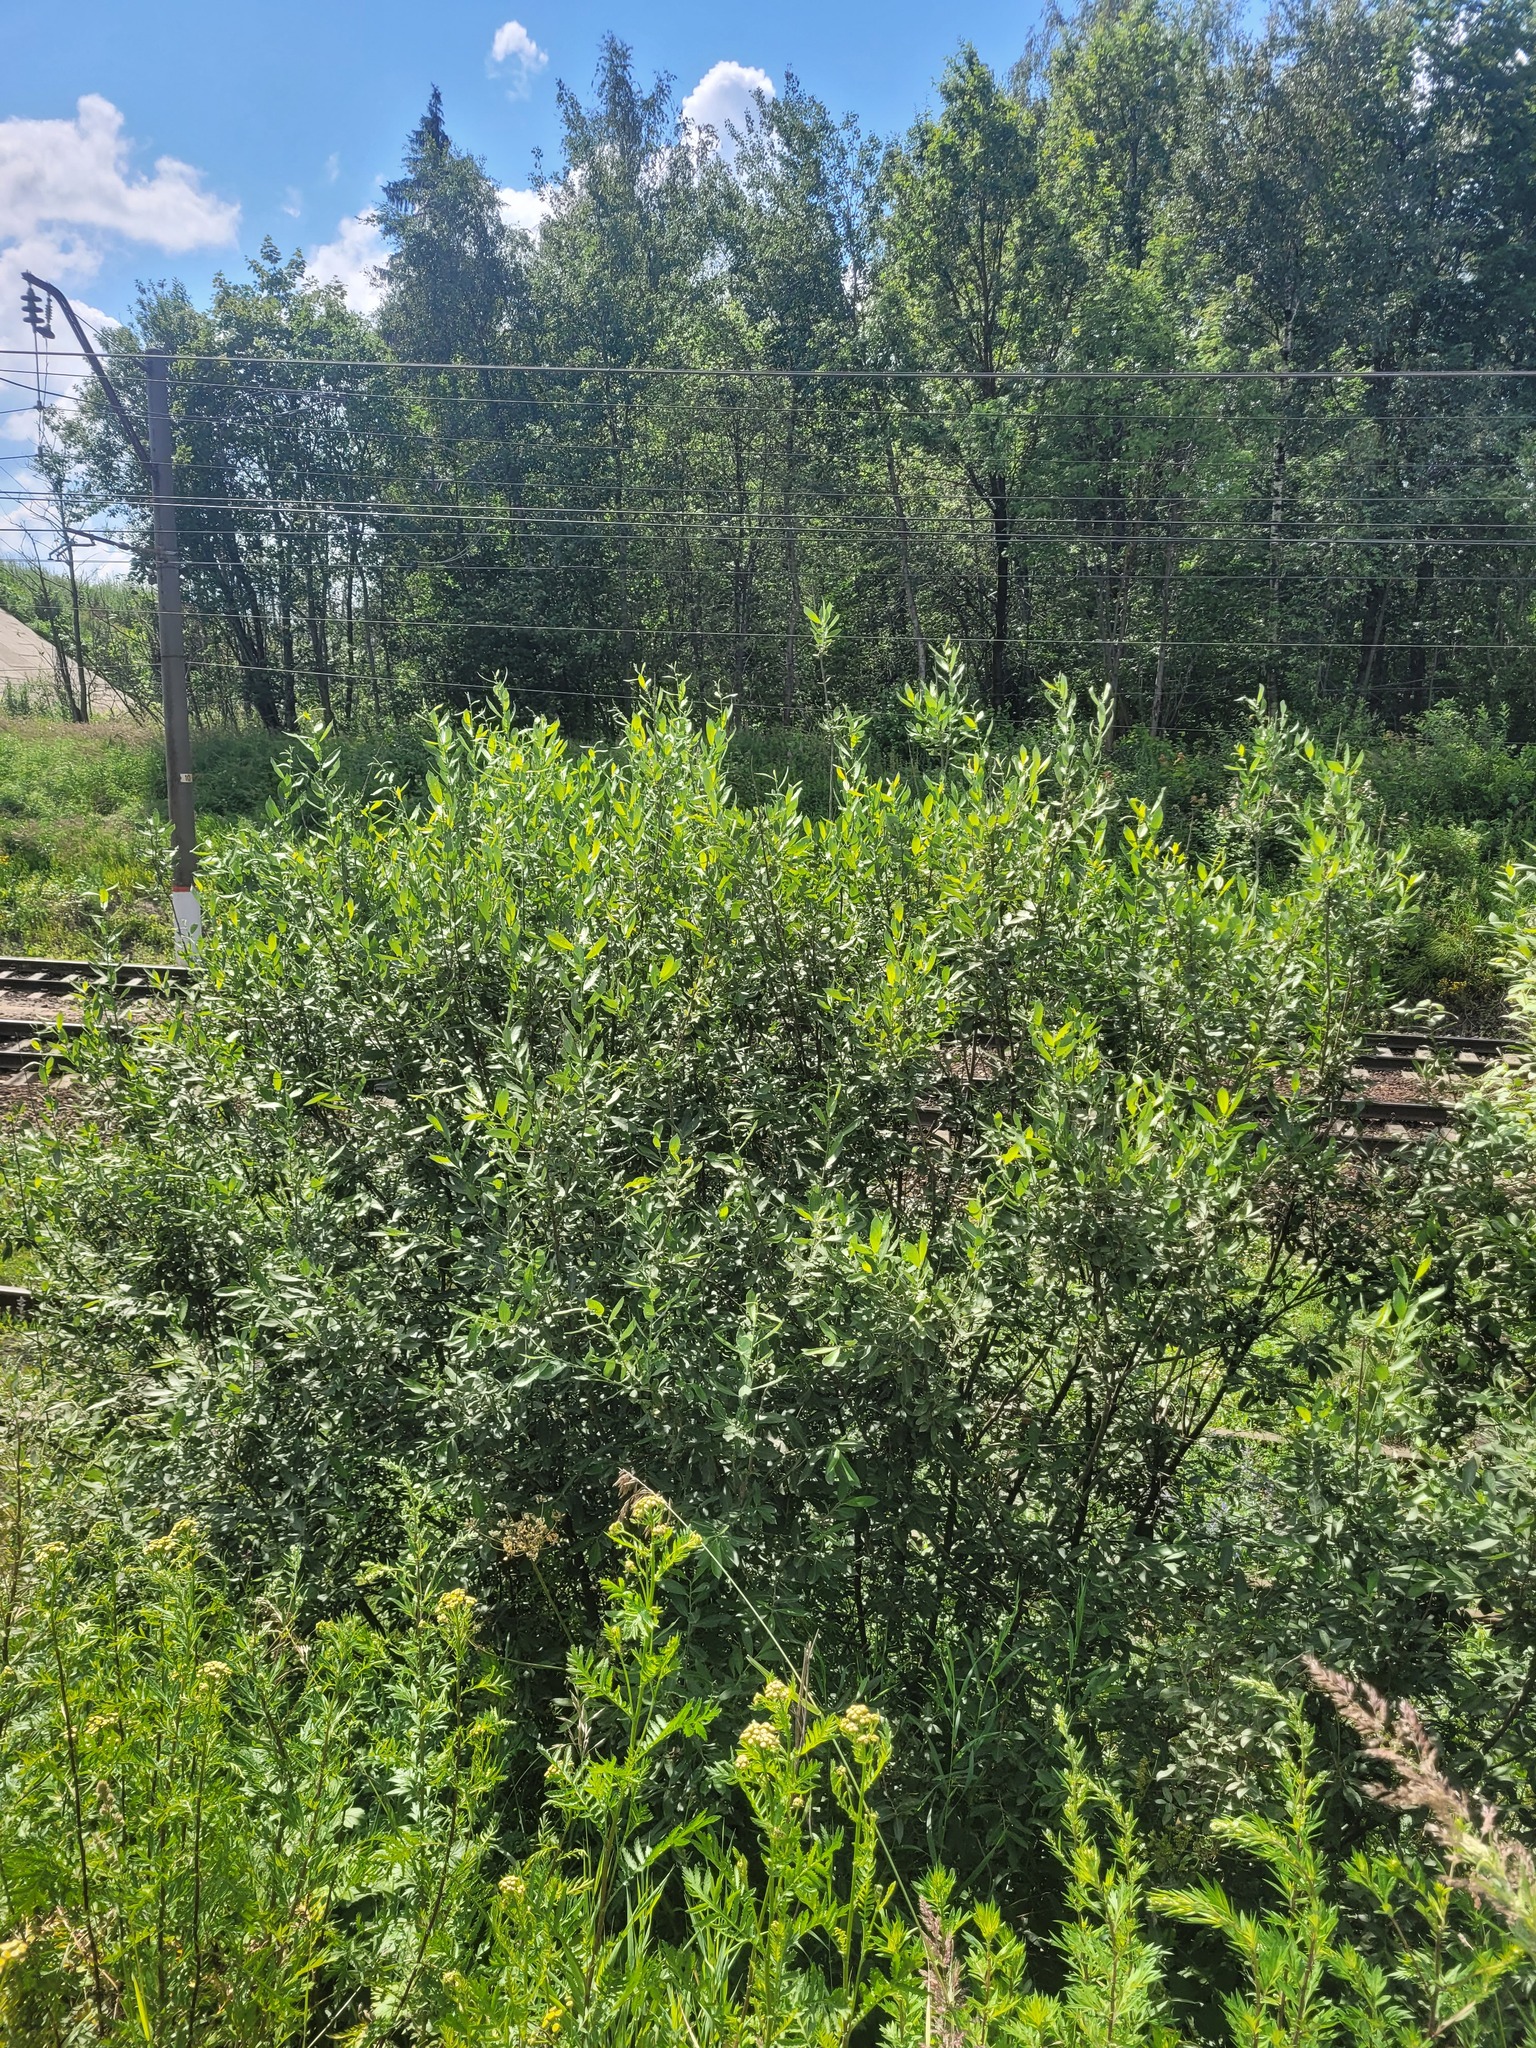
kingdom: Plantae
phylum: Tracheophyta
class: Magnoliopsida
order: Malpighiales
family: Salicaceae
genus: Salix
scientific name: Salix cinerea
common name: Common sallow
